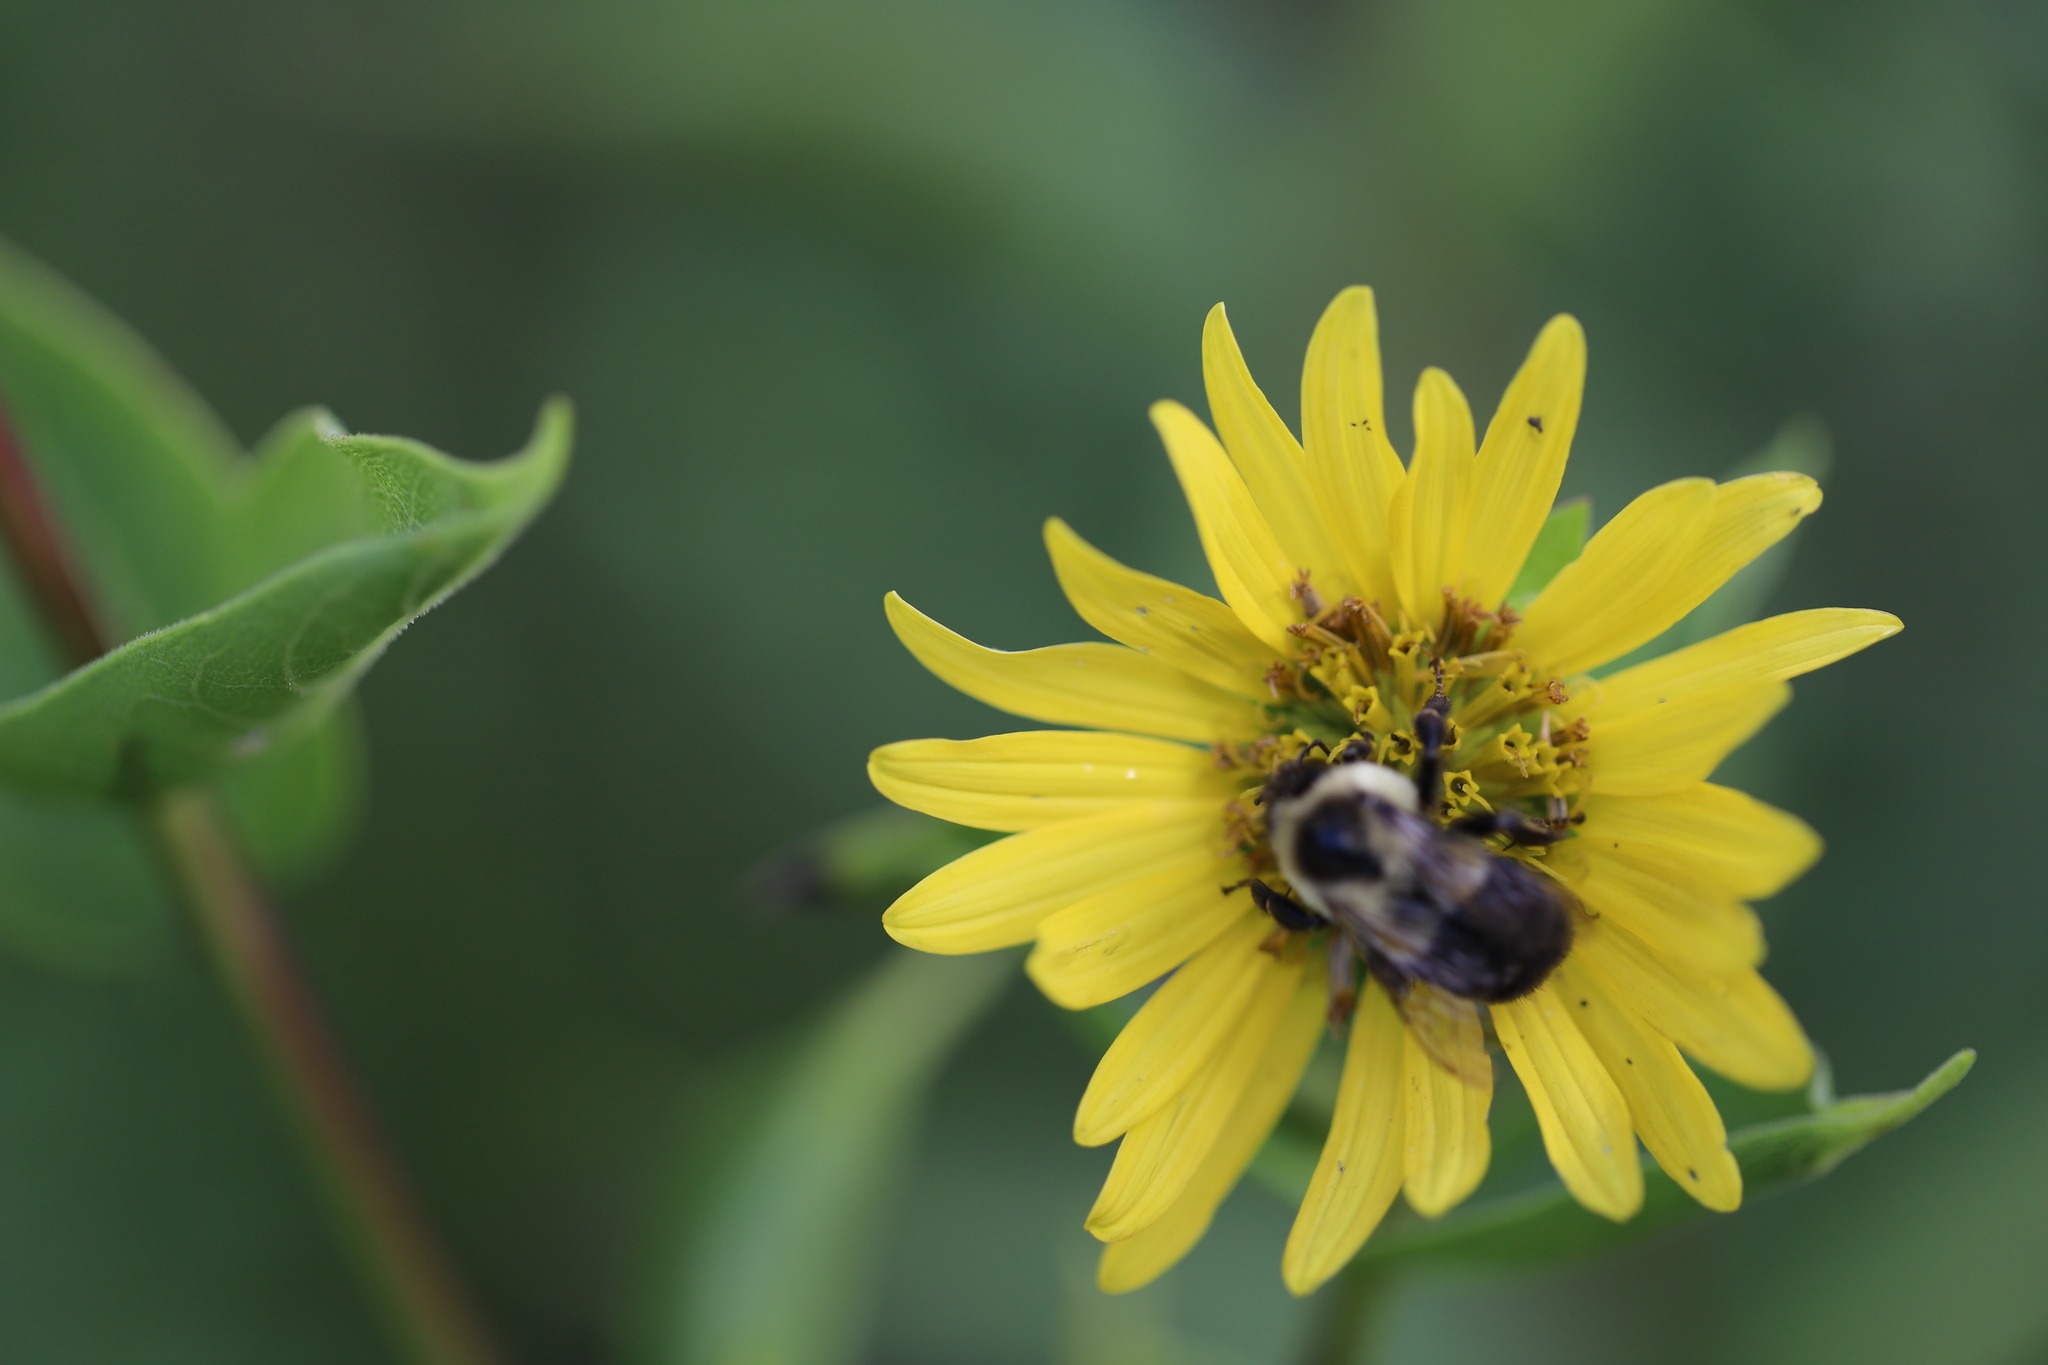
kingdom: Animalia
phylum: Arthropoda
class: Insecta
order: Hymenoptera
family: Apidae
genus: Bombus
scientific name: Bombus impatiens
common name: Common eastern bumble bee
